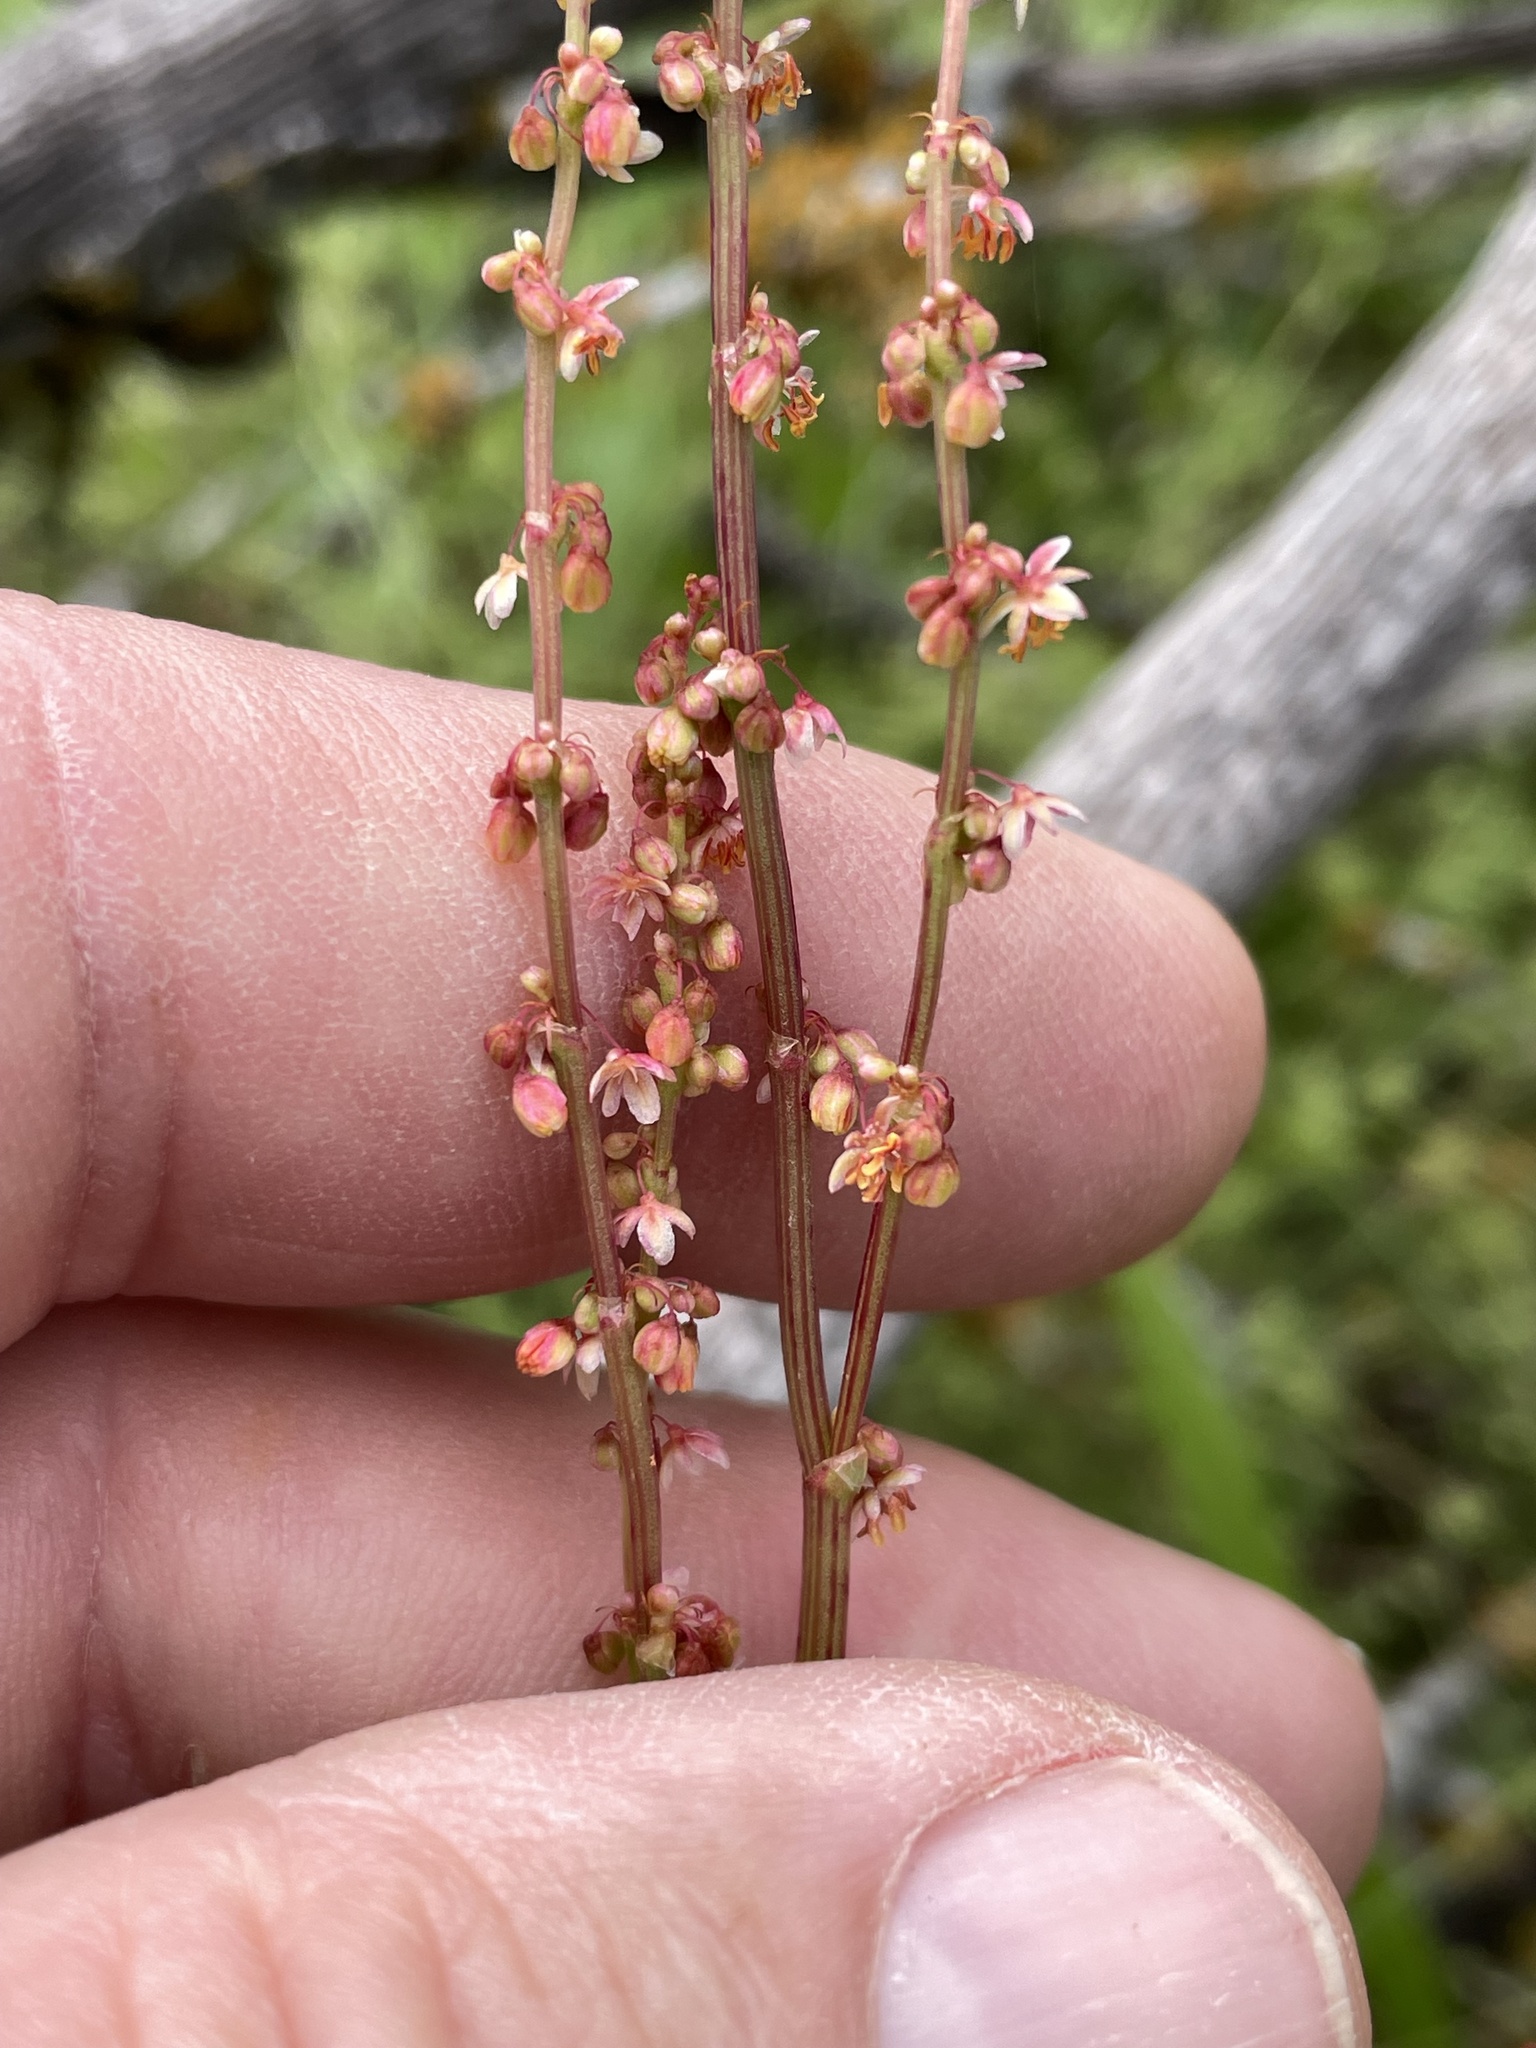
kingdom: Plantae
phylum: Tracheophyta
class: Magnoliopsida
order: Caryophyllales
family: Polygonaceae
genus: Rumex
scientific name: Rumex hastatulus
